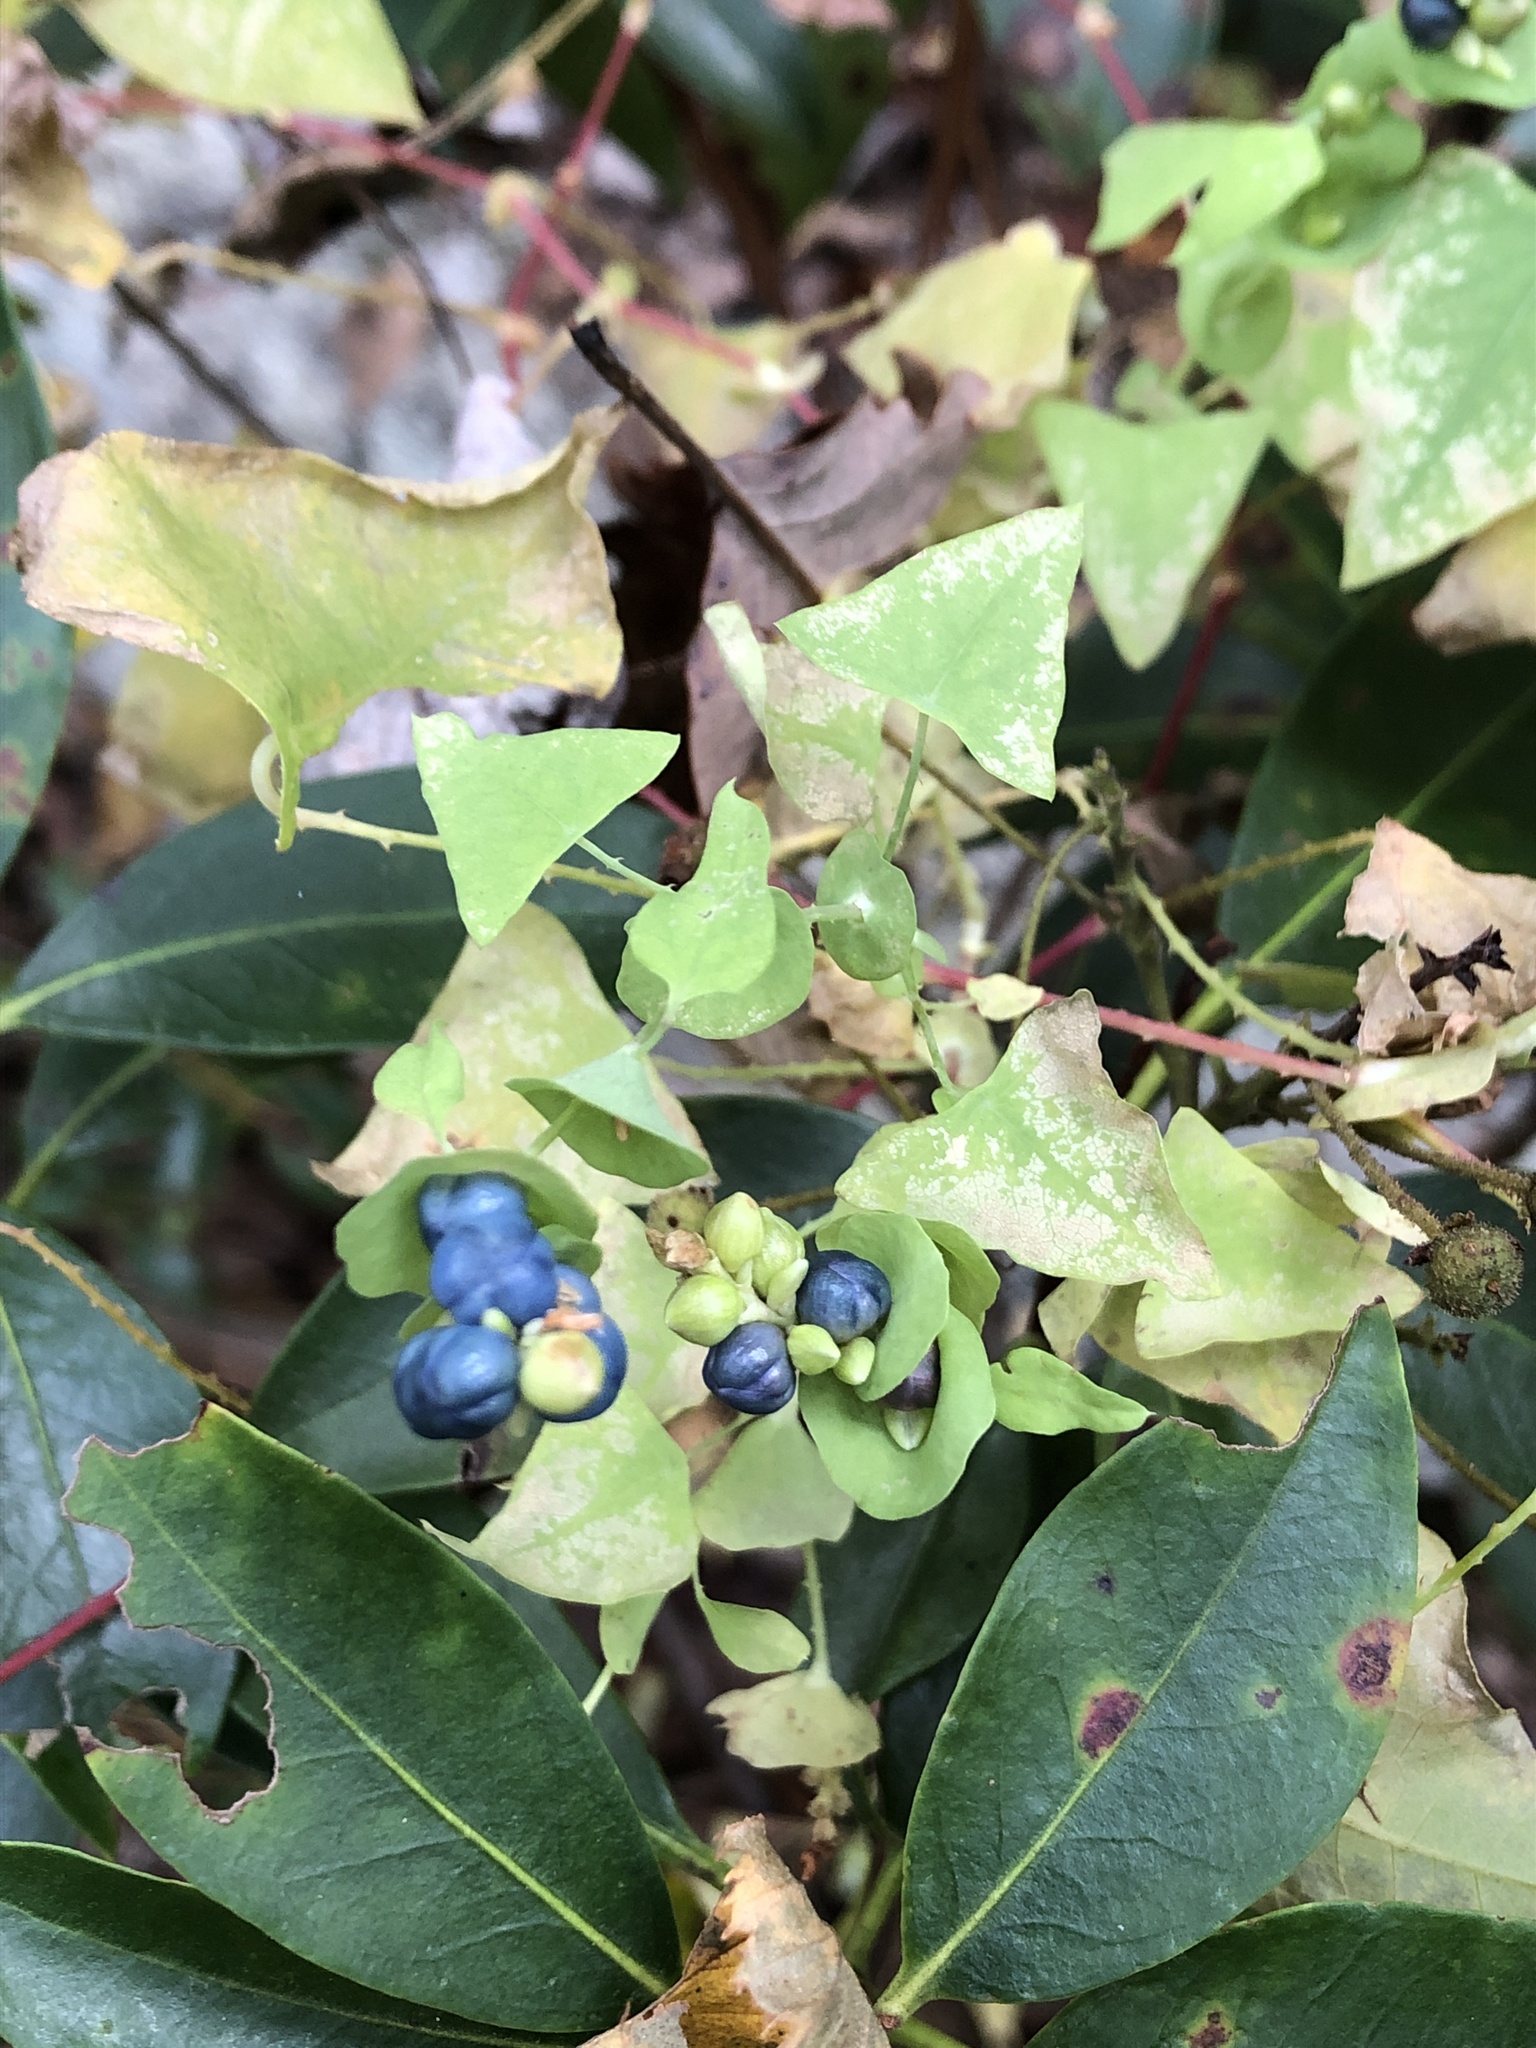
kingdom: Plantae
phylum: Tracheophyta
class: Magnoliopsida
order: Caryophyllales
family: Polygonaceae
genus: Persicaria
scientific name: Persicaria perfoliata
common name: Asiatic tearthumb
